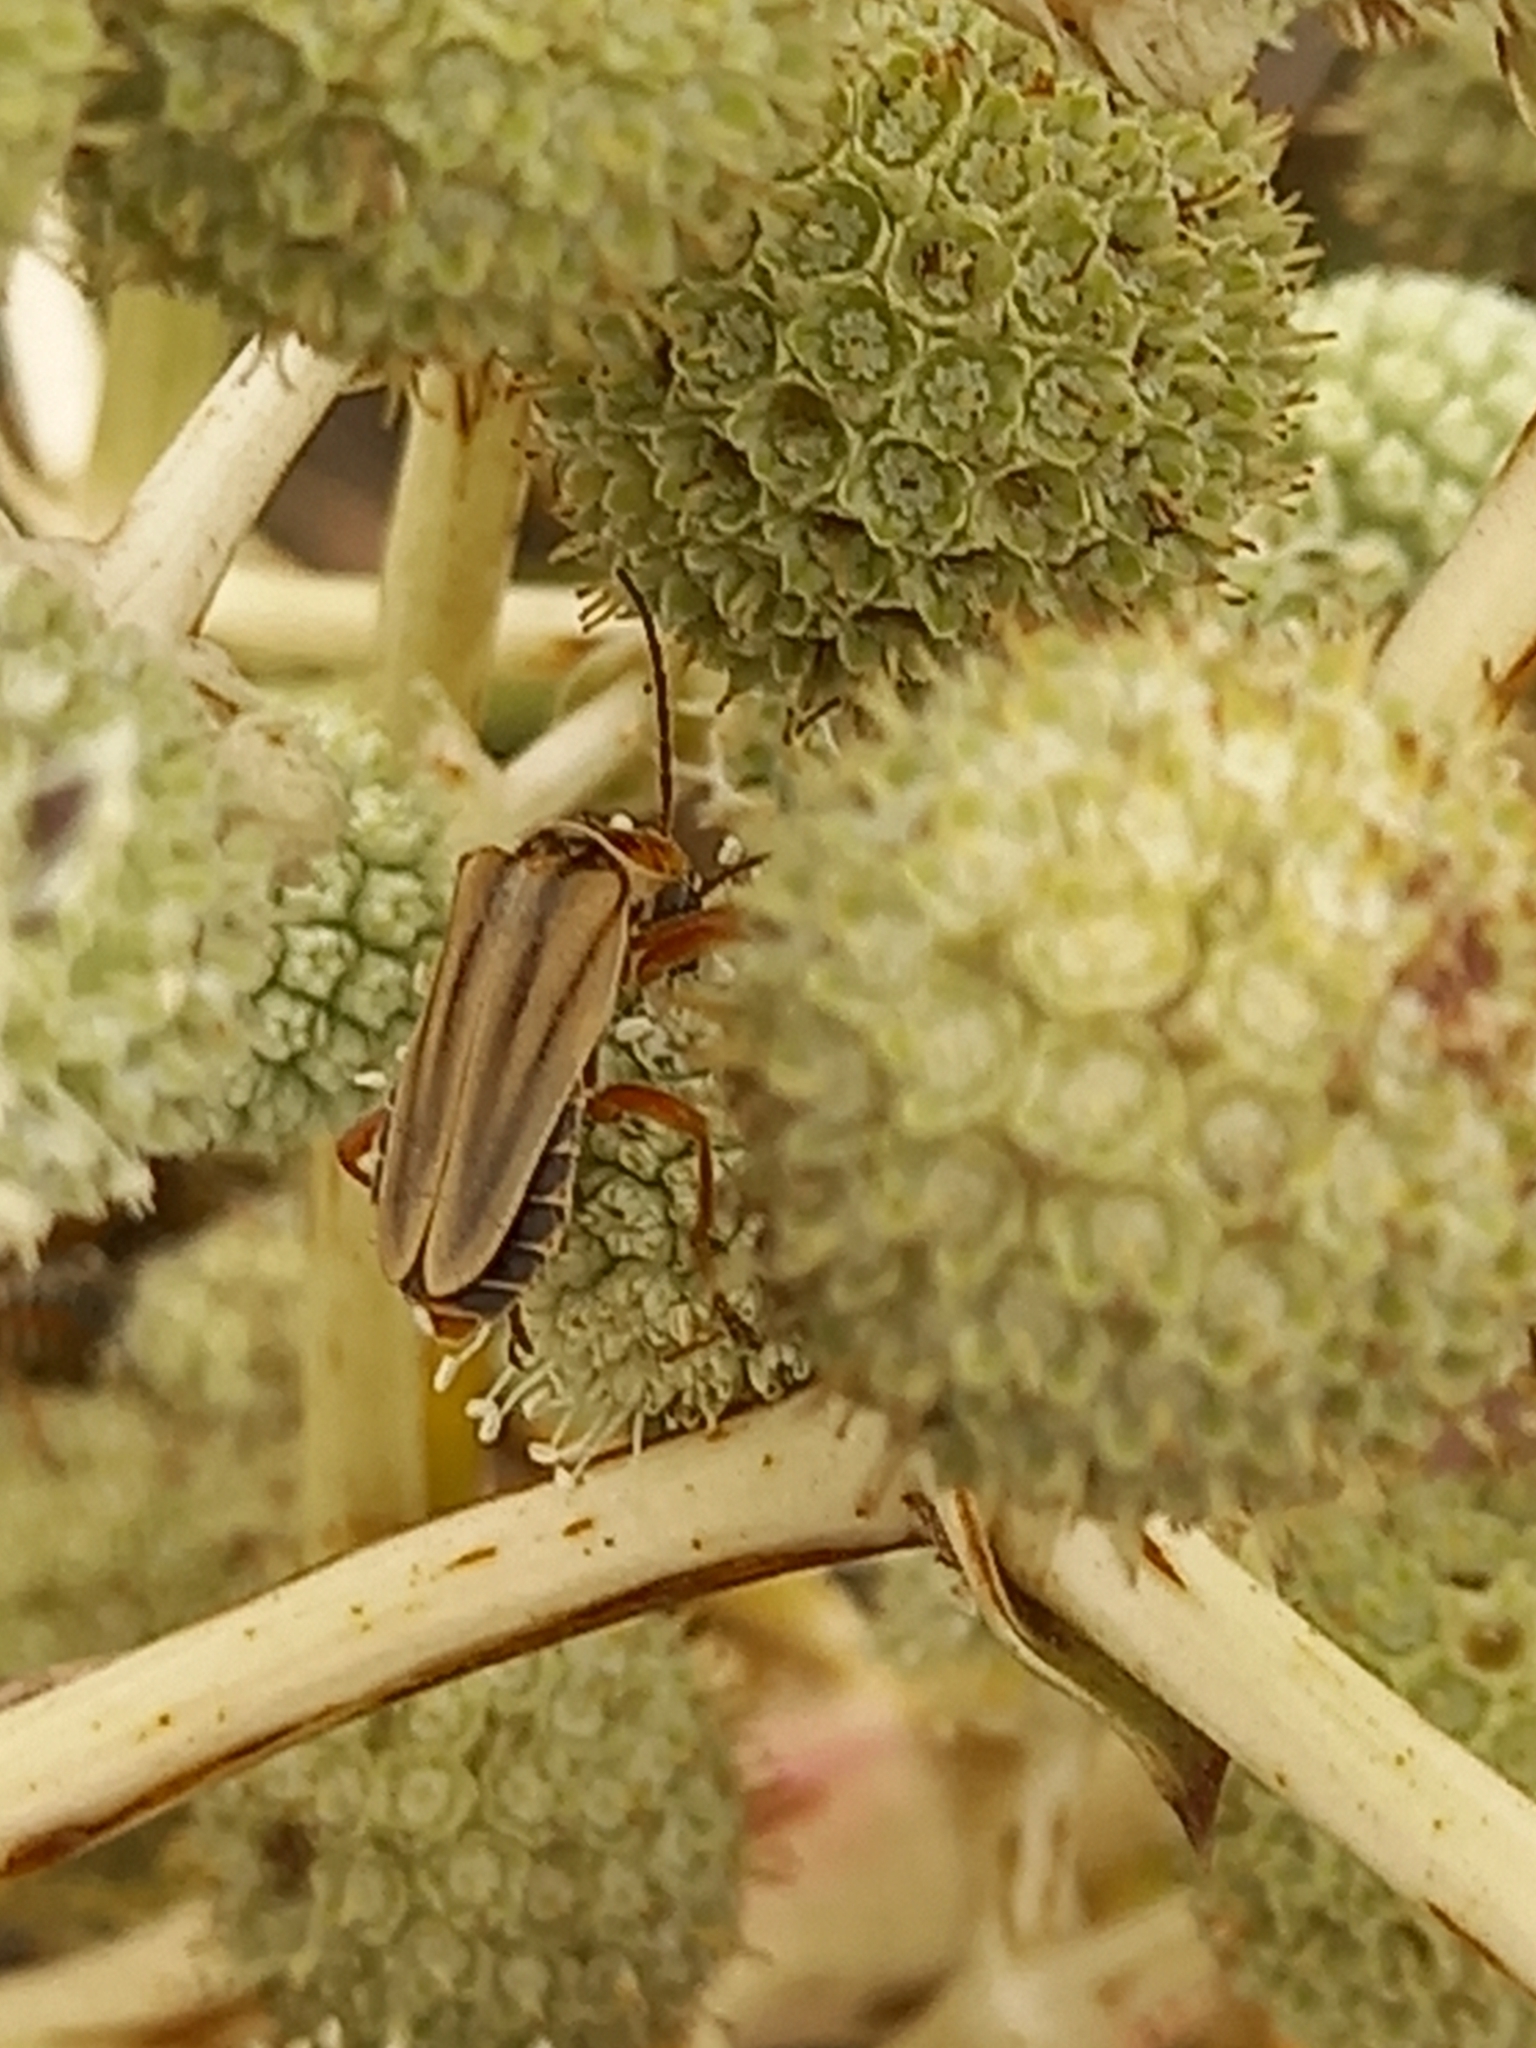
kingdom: Animalia
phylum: Arthropoda
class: Insecta
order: Coleoptera
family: Cantharidae
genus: Chauliognathus
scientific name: Chauliognathus
